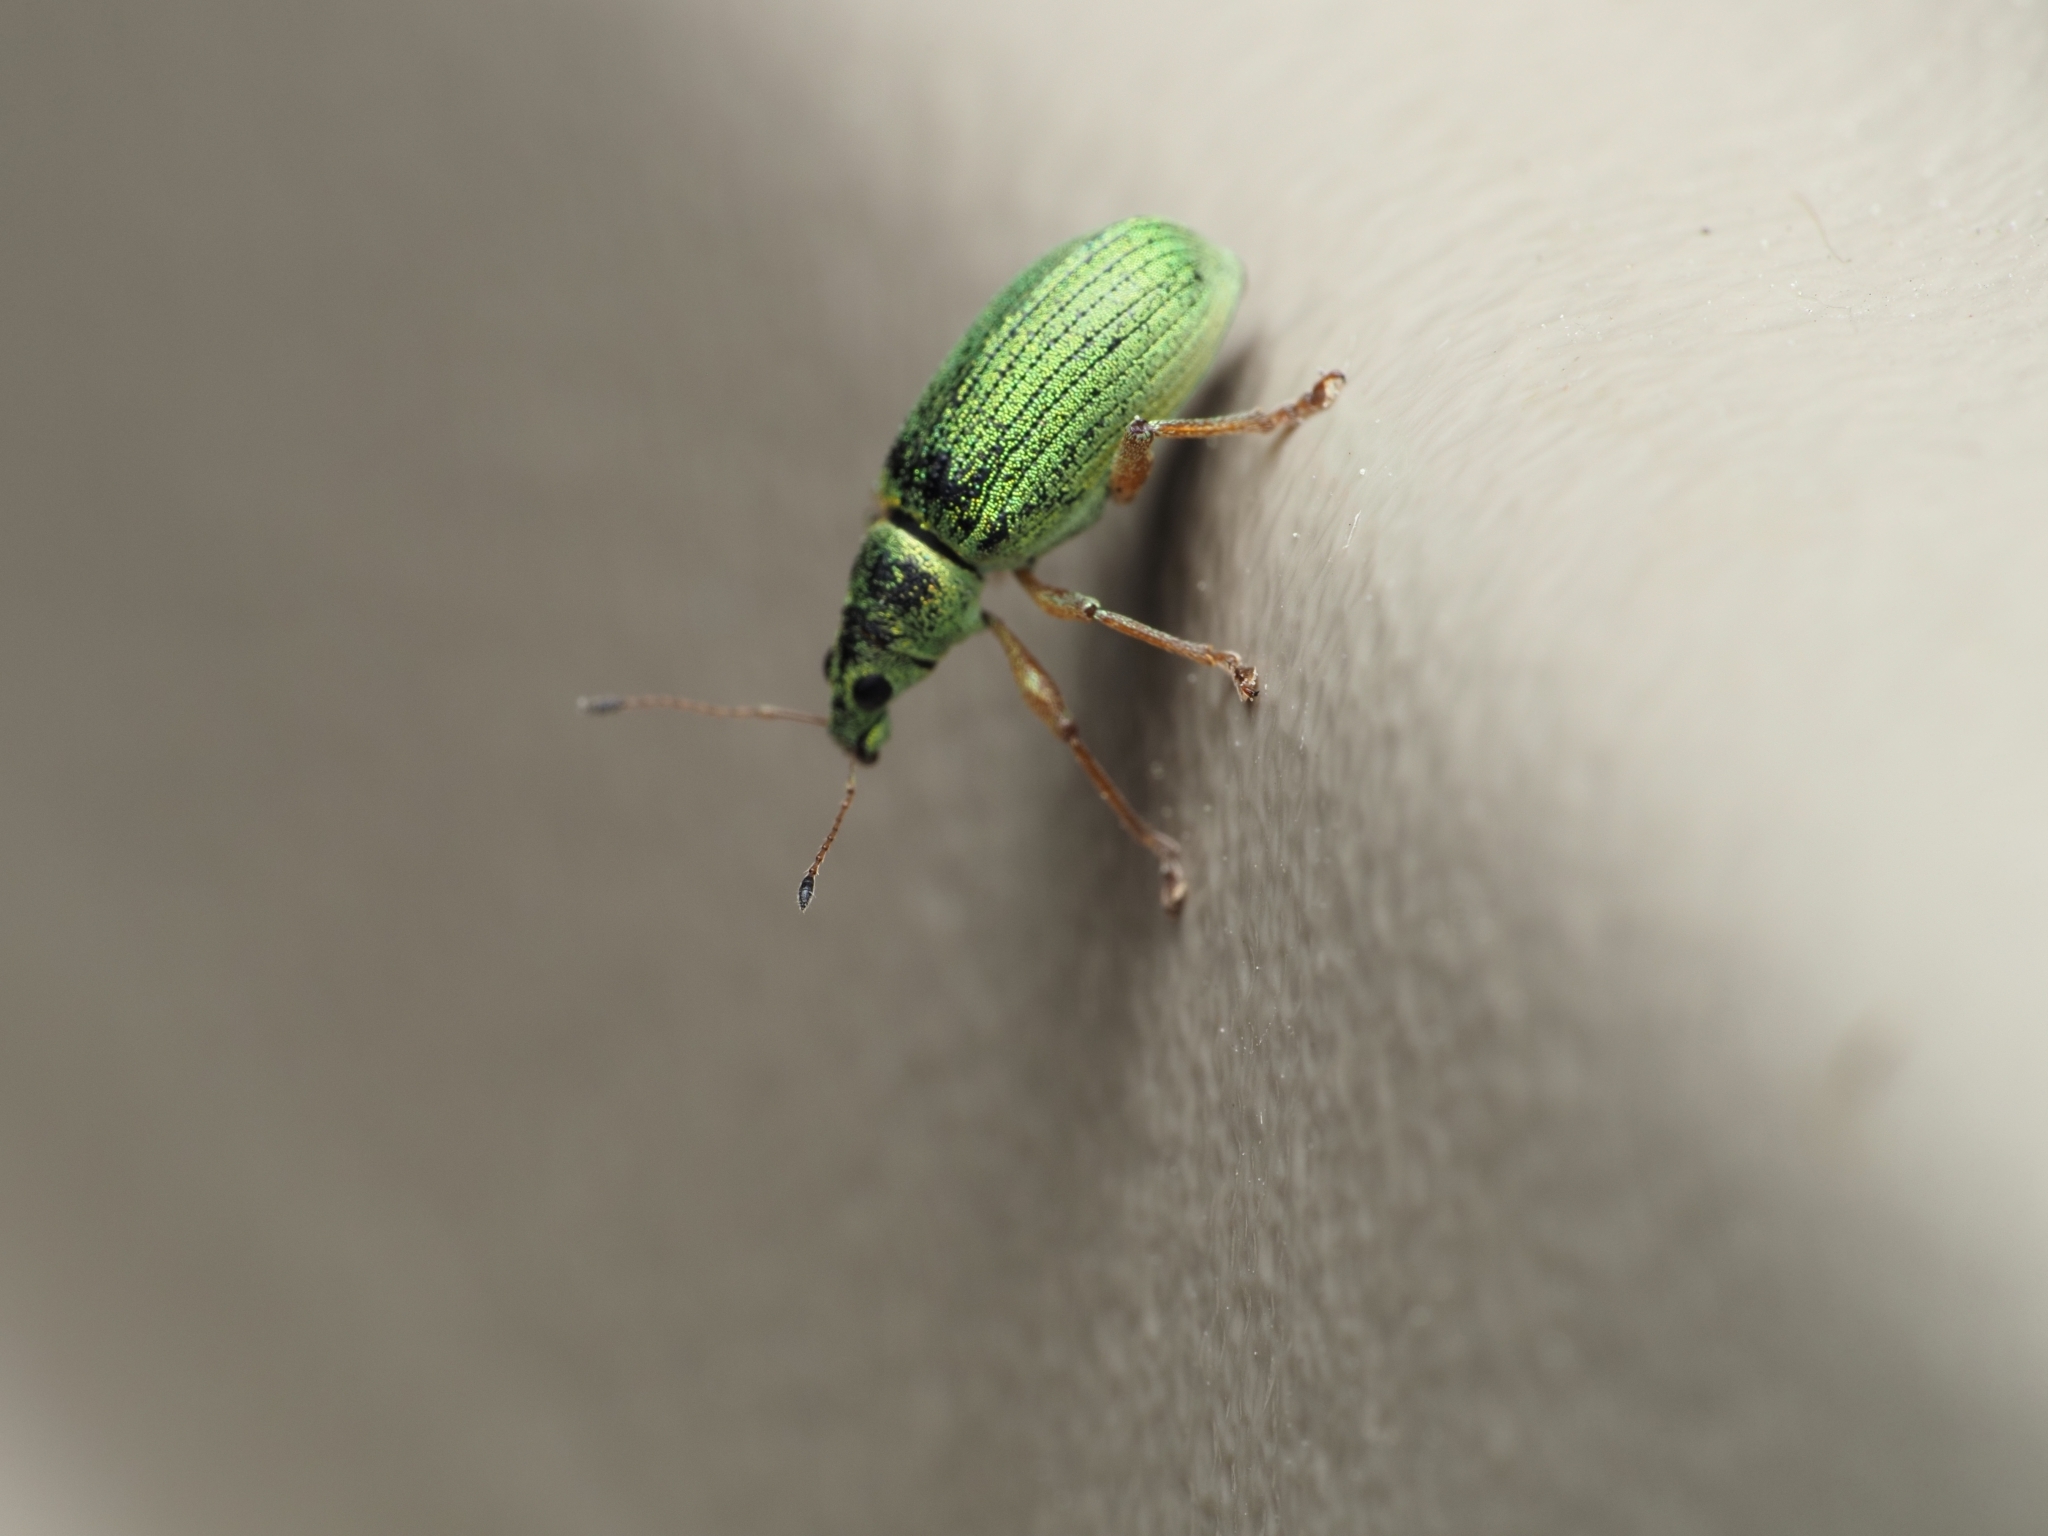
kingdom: Animalia
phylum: Arthropoda
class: Insecta
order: Coleoptera
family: Curculionidae
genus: Polydrusus
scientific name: Polydrusus formosus
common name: Weevil
